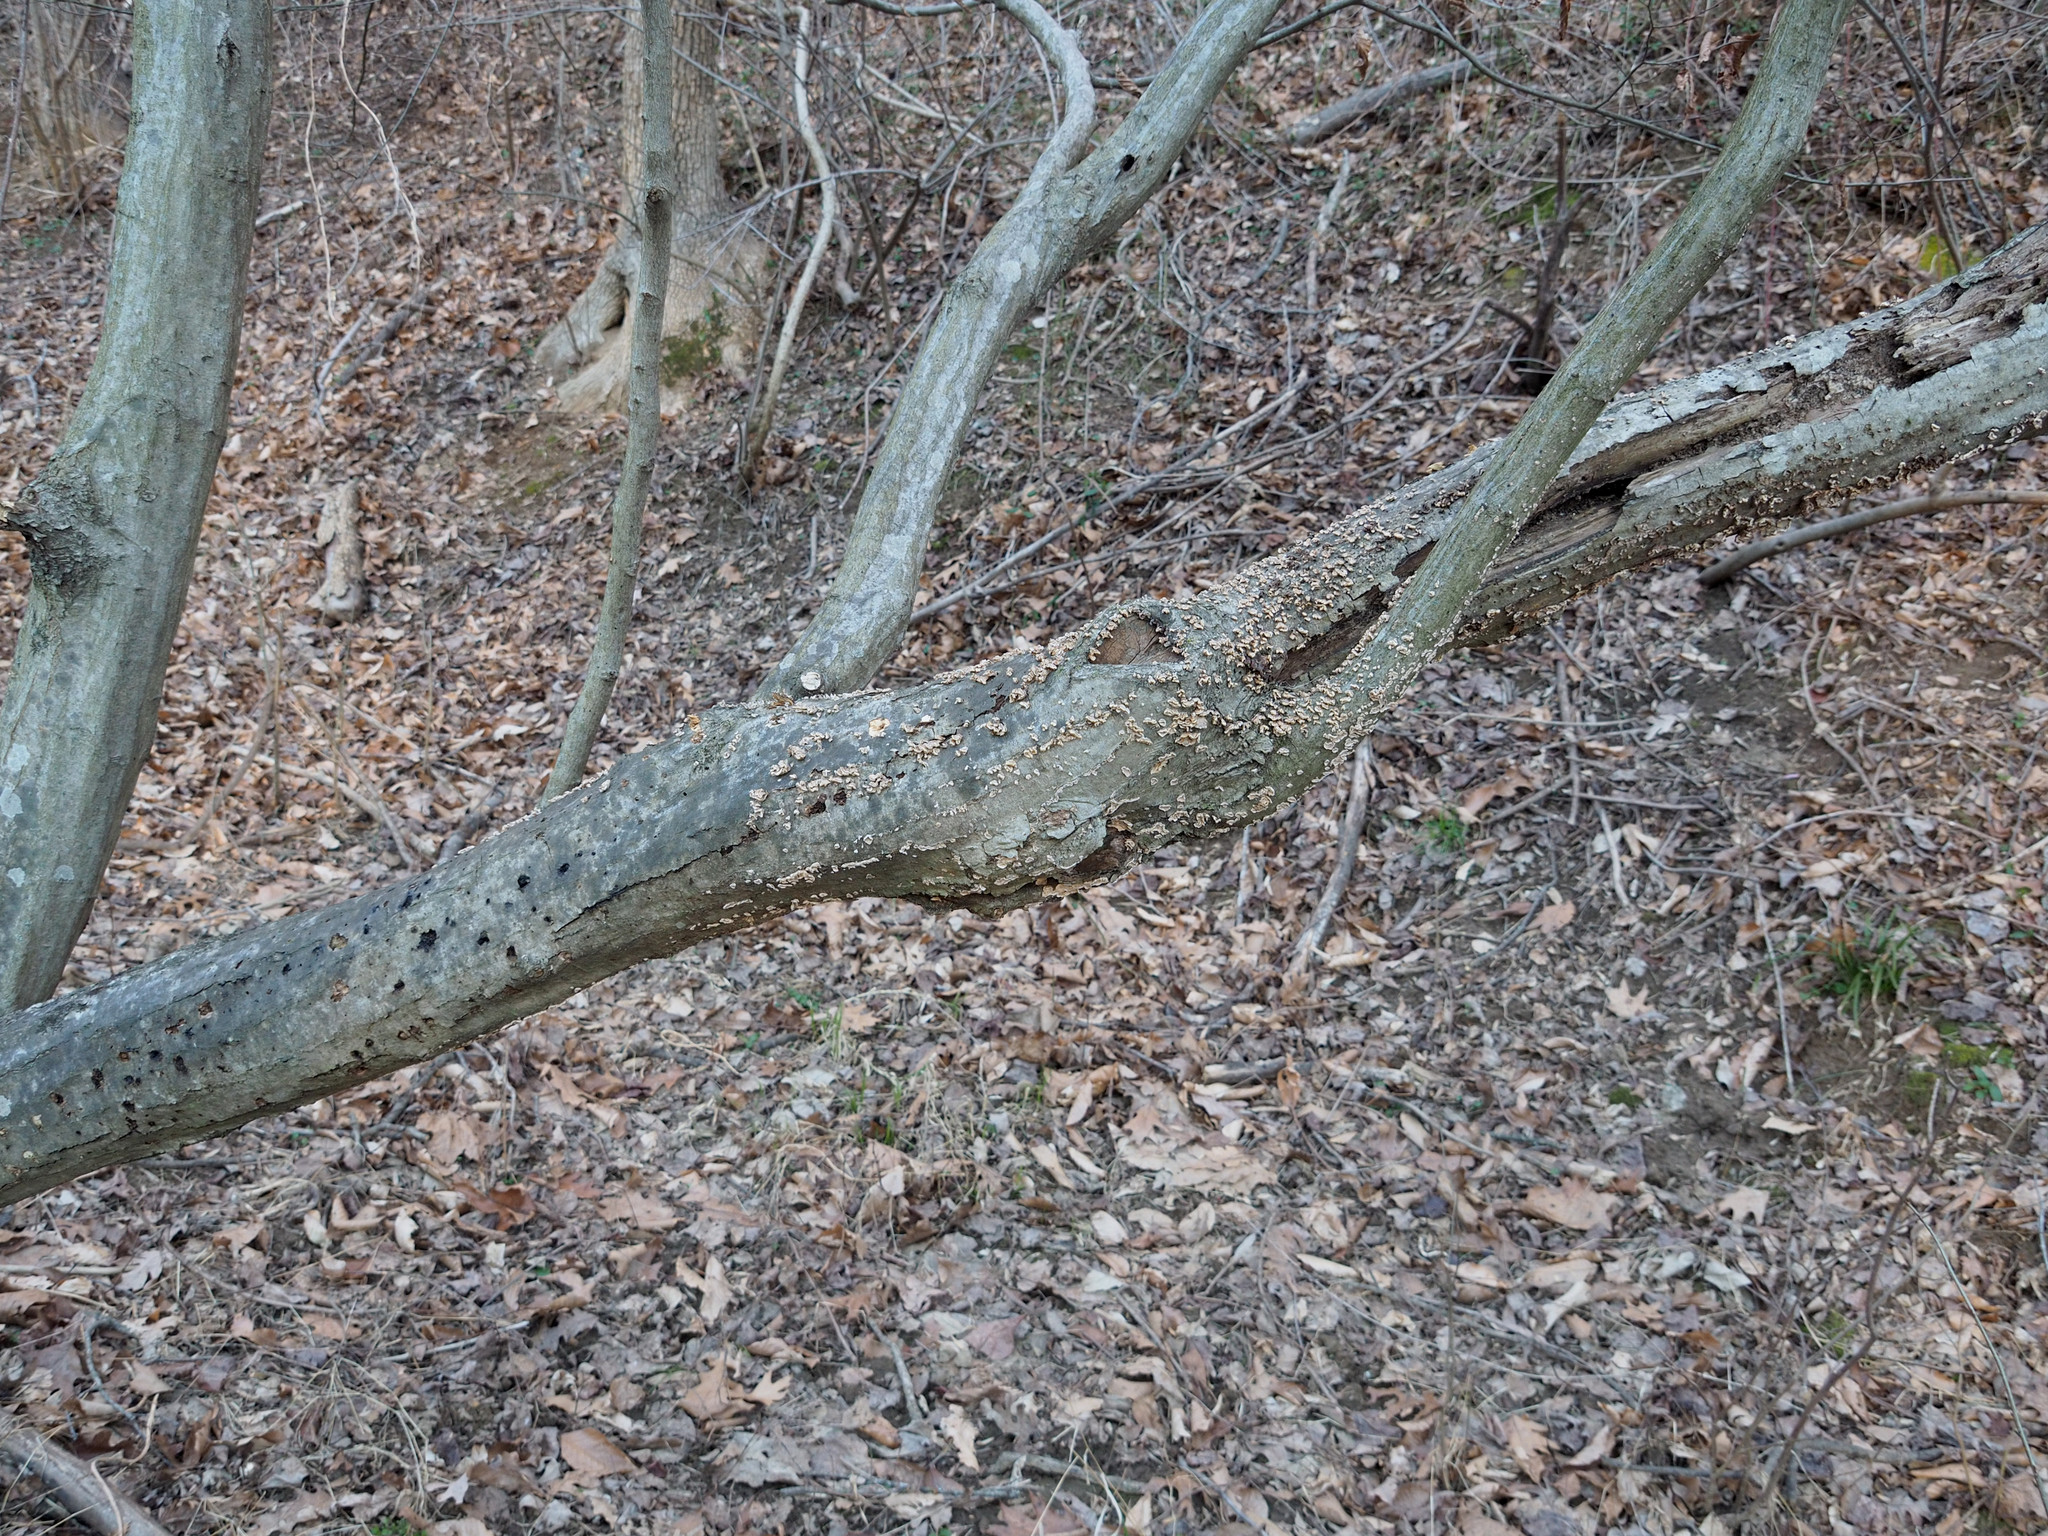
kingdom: Plantae
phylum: Tracheophyta
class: Magnoliopsida
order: Fagales
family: Betulaceae
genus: Carpinus
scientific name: Carpinus caroliniana
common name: American hornbeam
